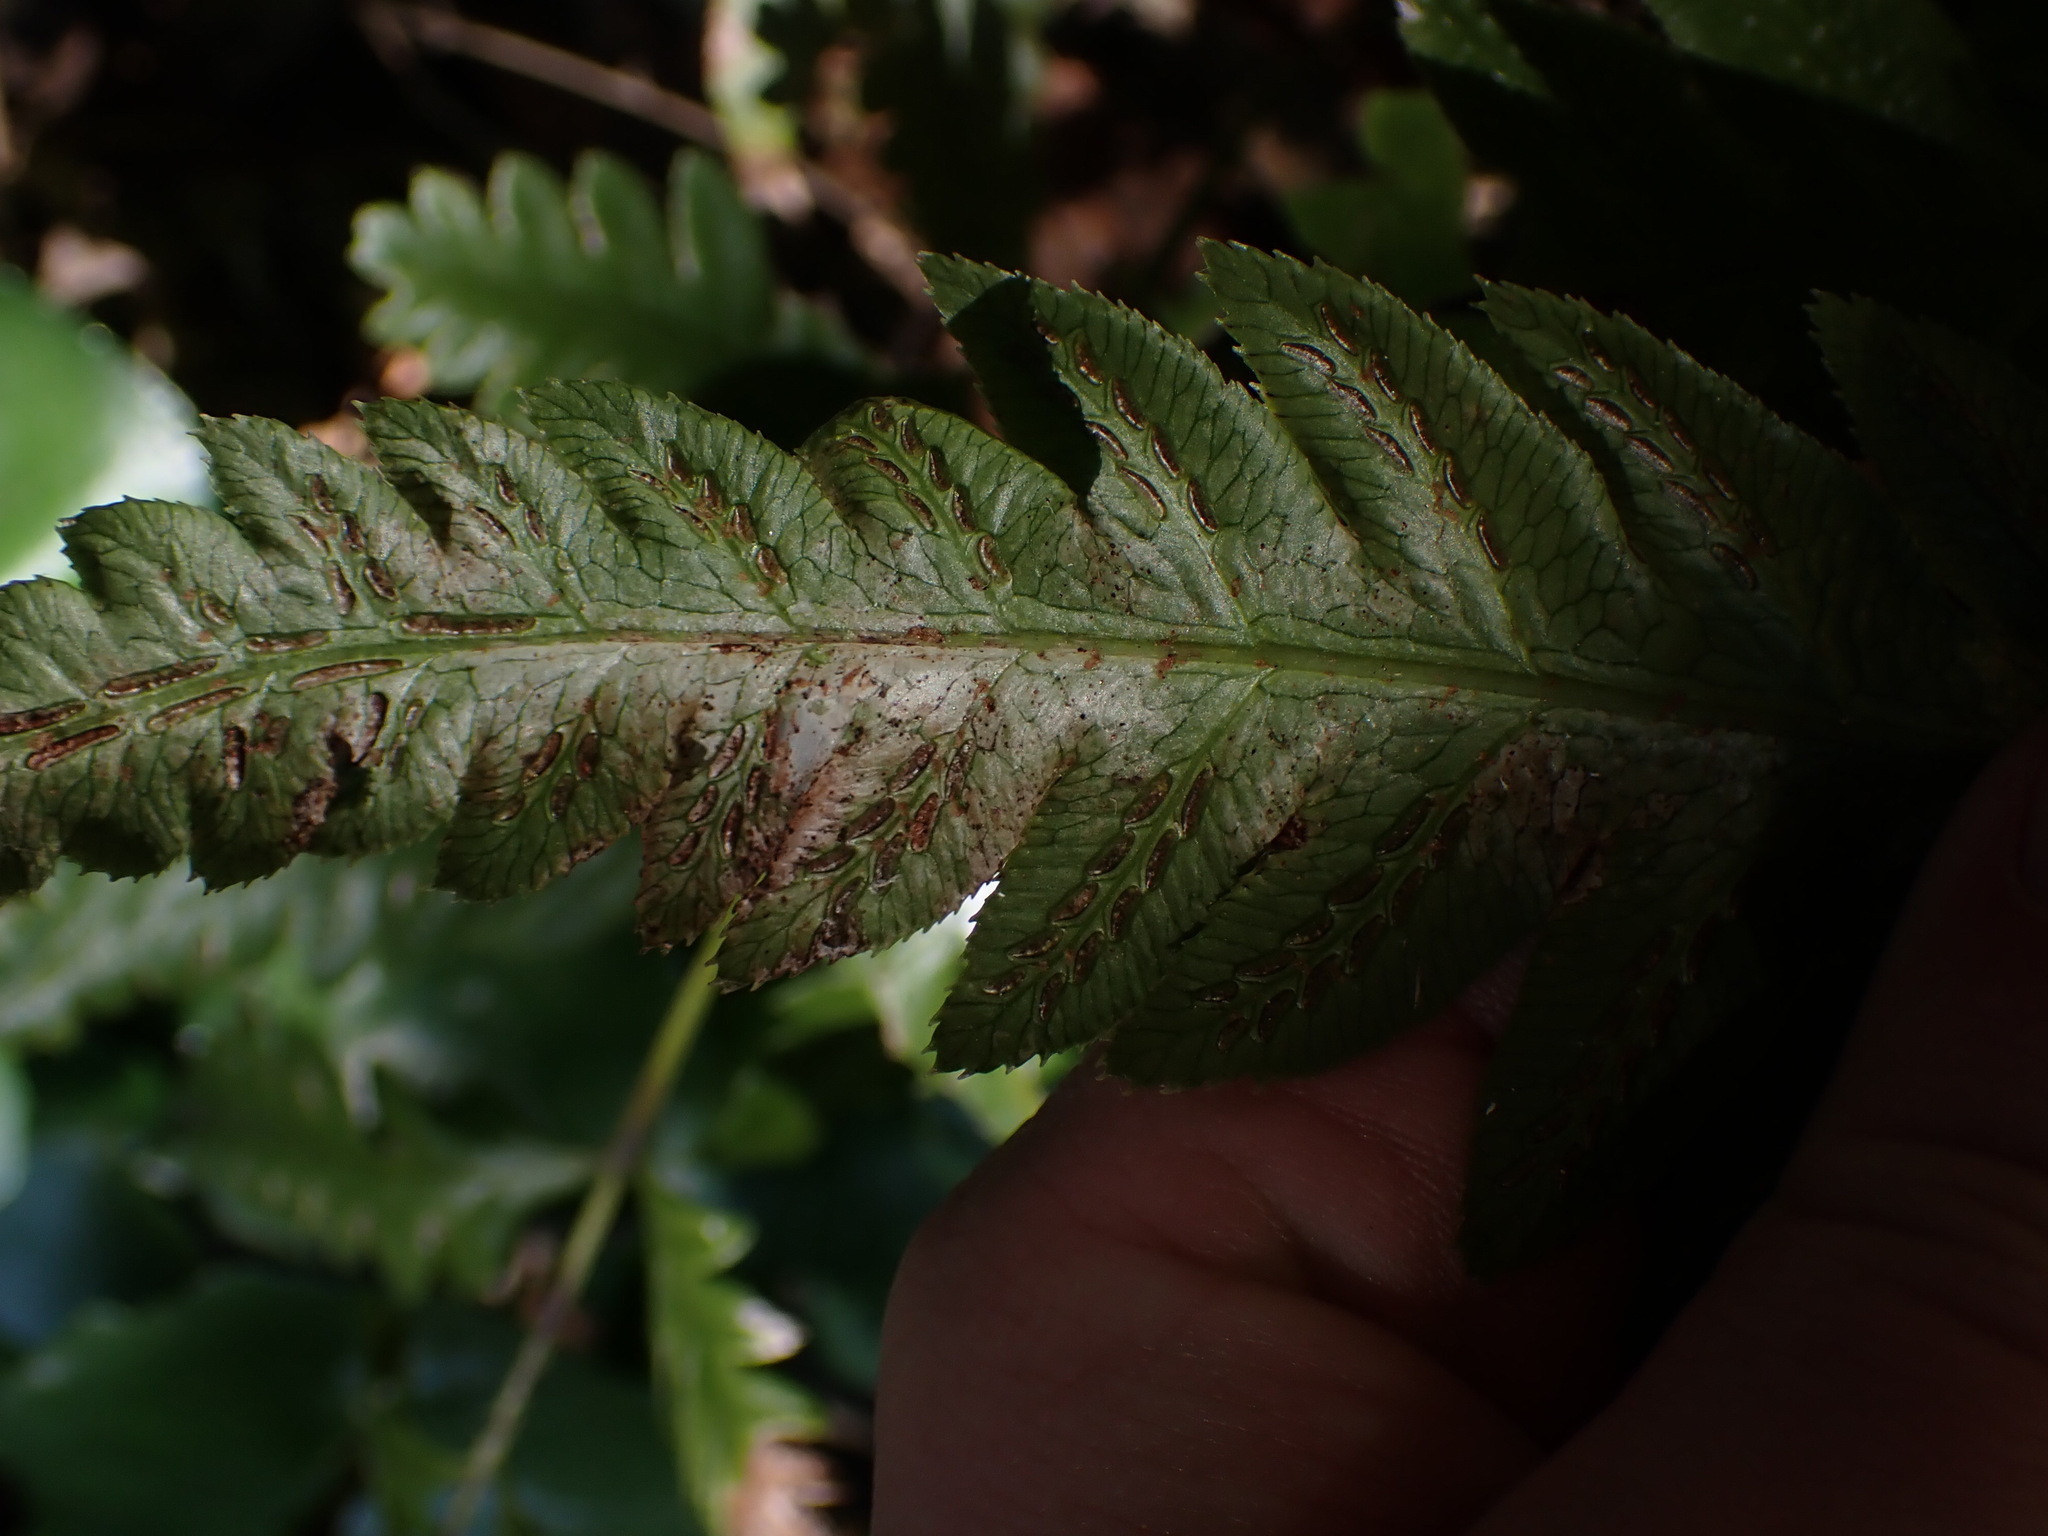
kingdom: Plantae
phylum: Tracheophyta
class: Polypodiopsida
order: Polypodiales
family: Blechnaceae
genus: Woodwardia
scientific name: Woodwardia orientalis
